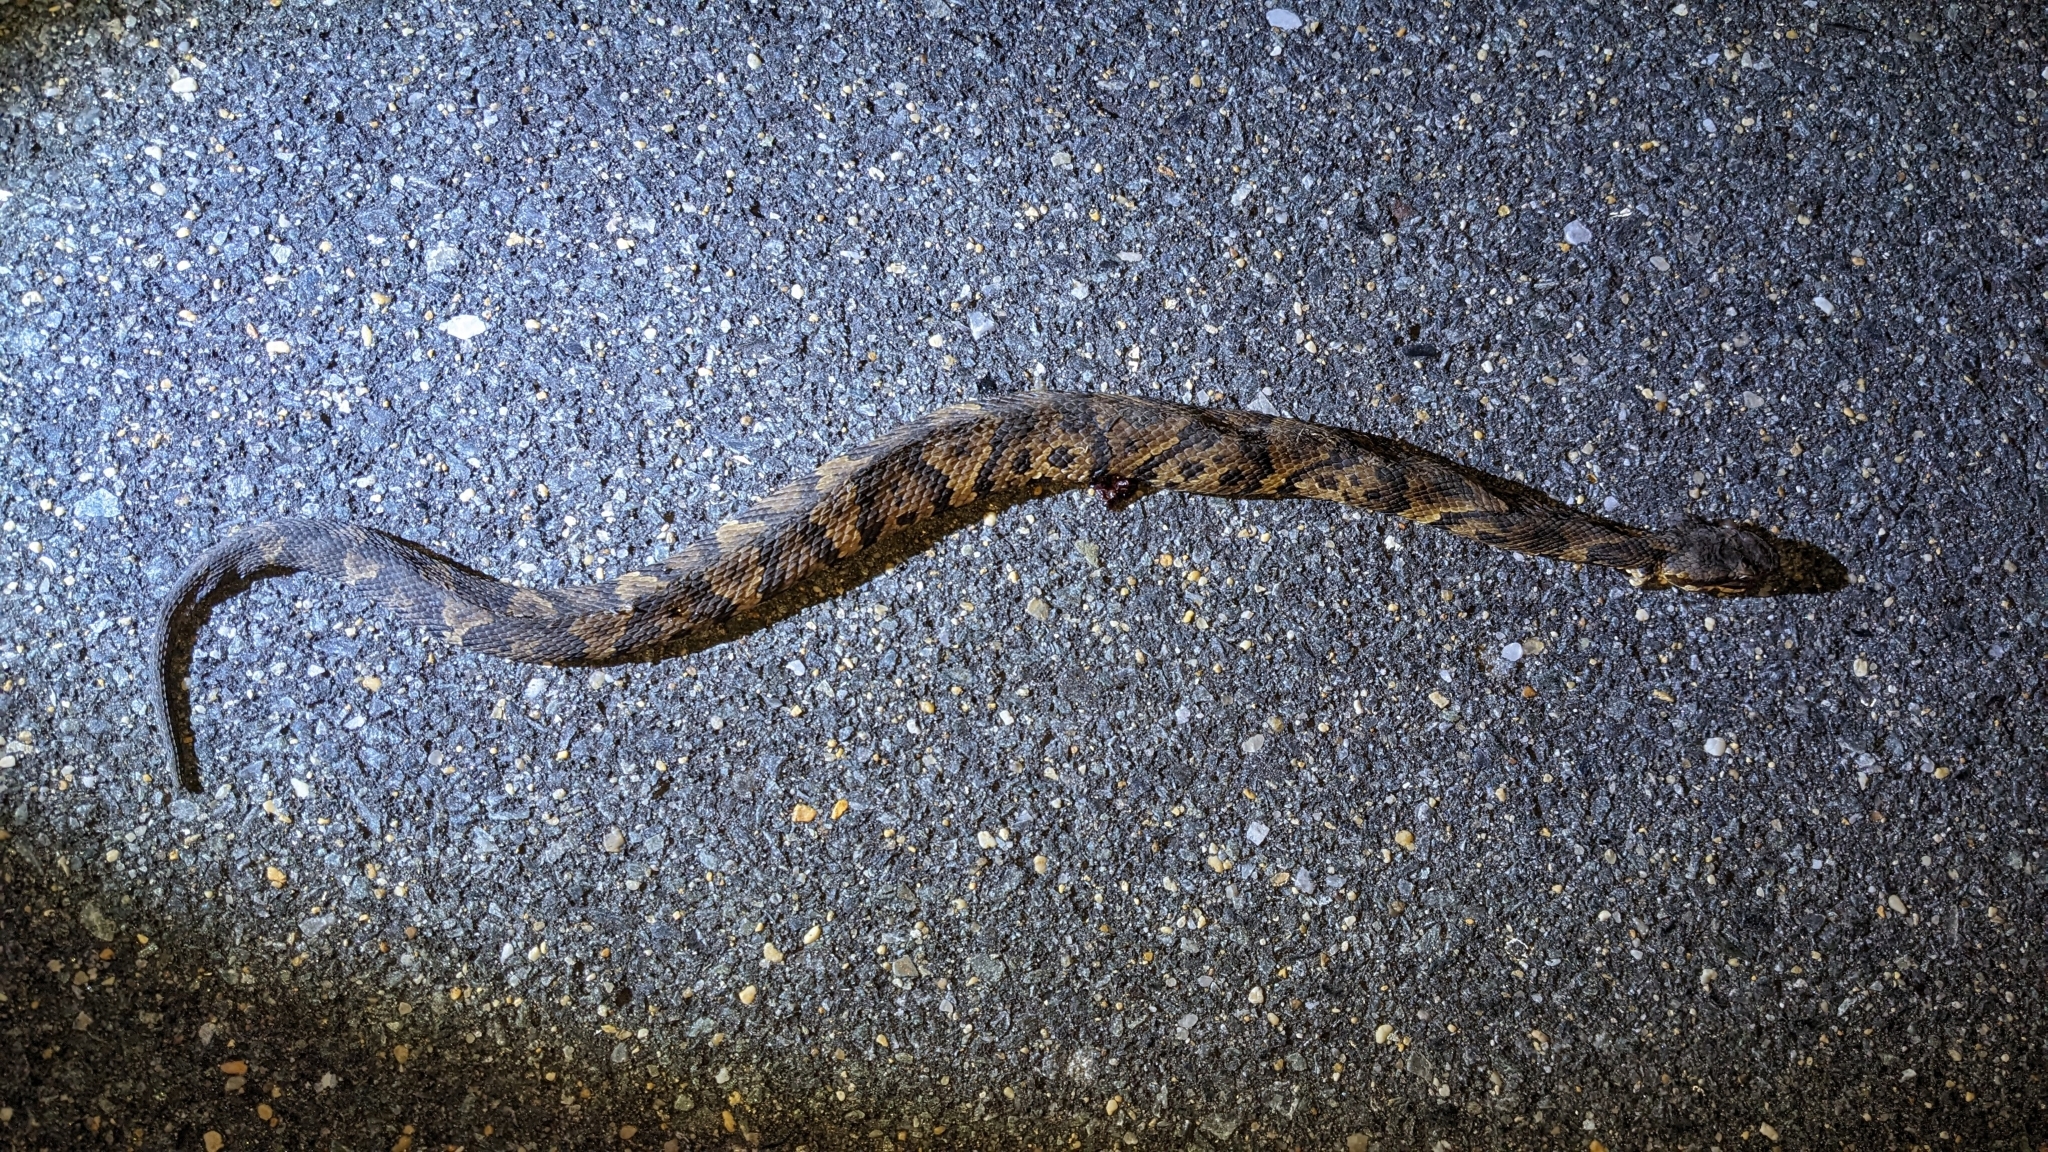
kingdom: Animalia
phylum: Chordata
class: Squamata
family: Viperidae
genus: Agkistrodon
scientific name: Agkistrodon piscivorus
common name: Cottonmouth
